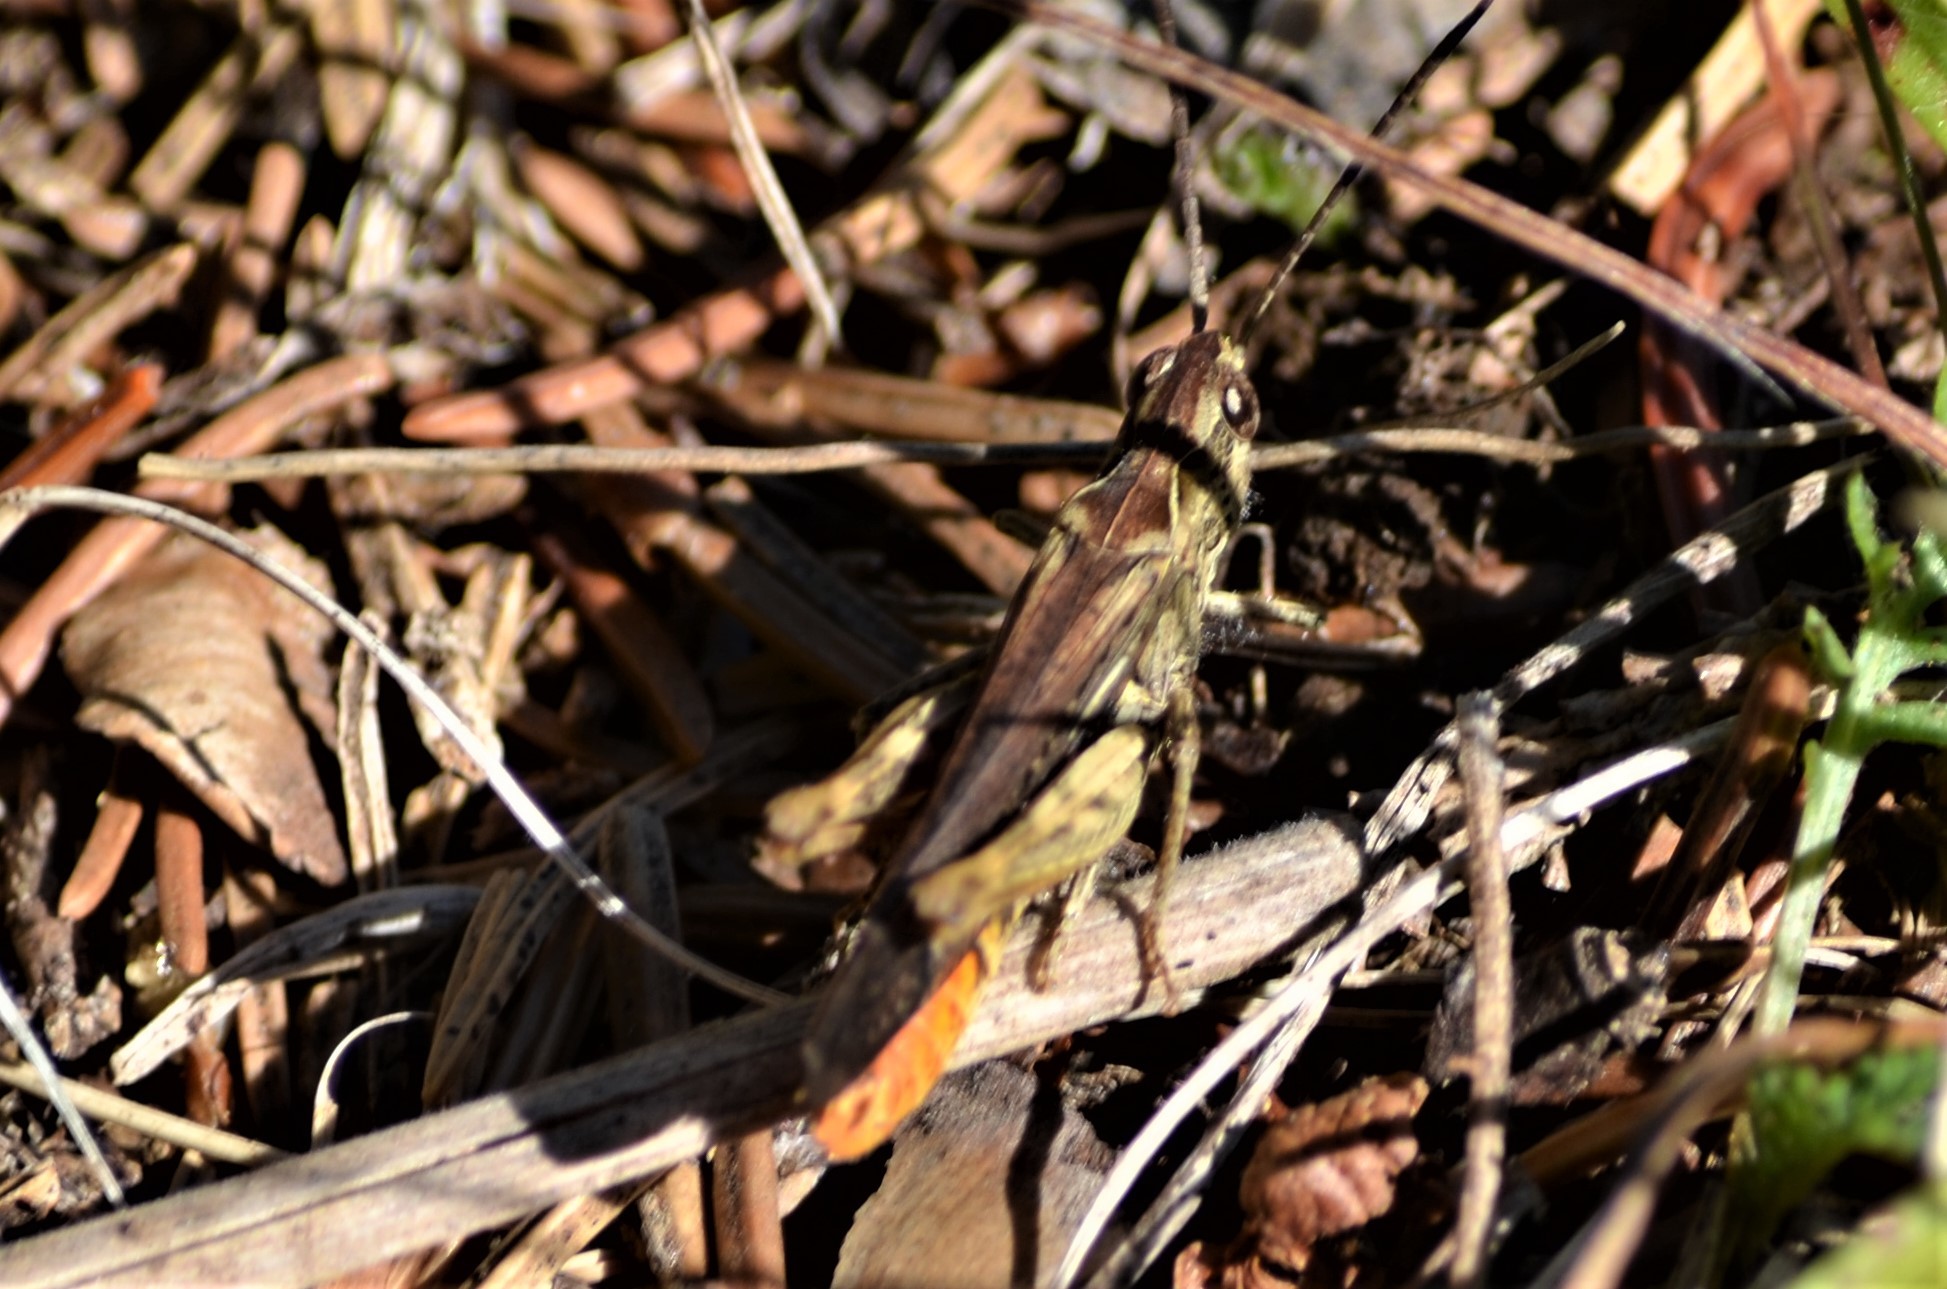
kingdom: Animalia
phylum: Arthropoda
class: Insecta
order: Orthoptera
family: Acrididae
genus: Chorthippus
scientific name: Chorthippus brunneus
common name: Field grasshopper
